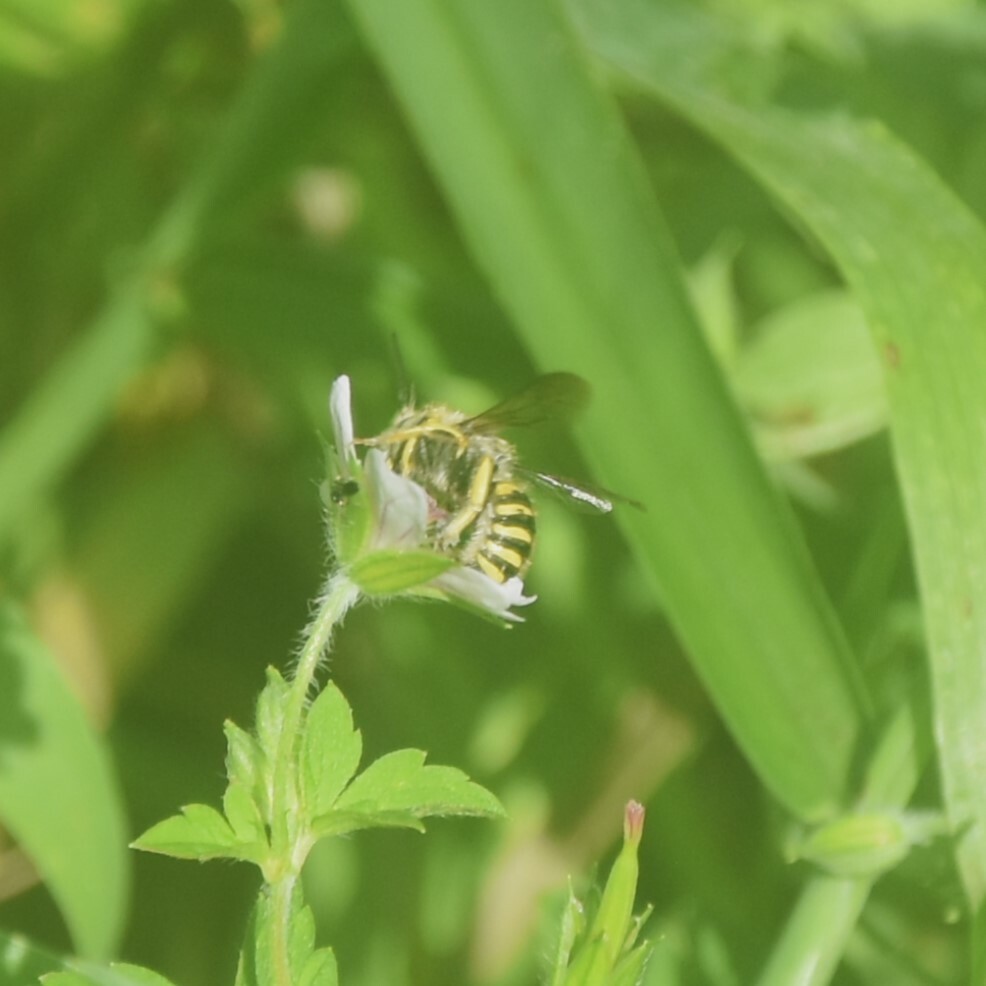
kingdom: Animalia
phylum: Arthropoda
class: Insecta
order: Hymenoptera
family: Megachilidae
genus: Anthidium
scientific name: Anthidium
